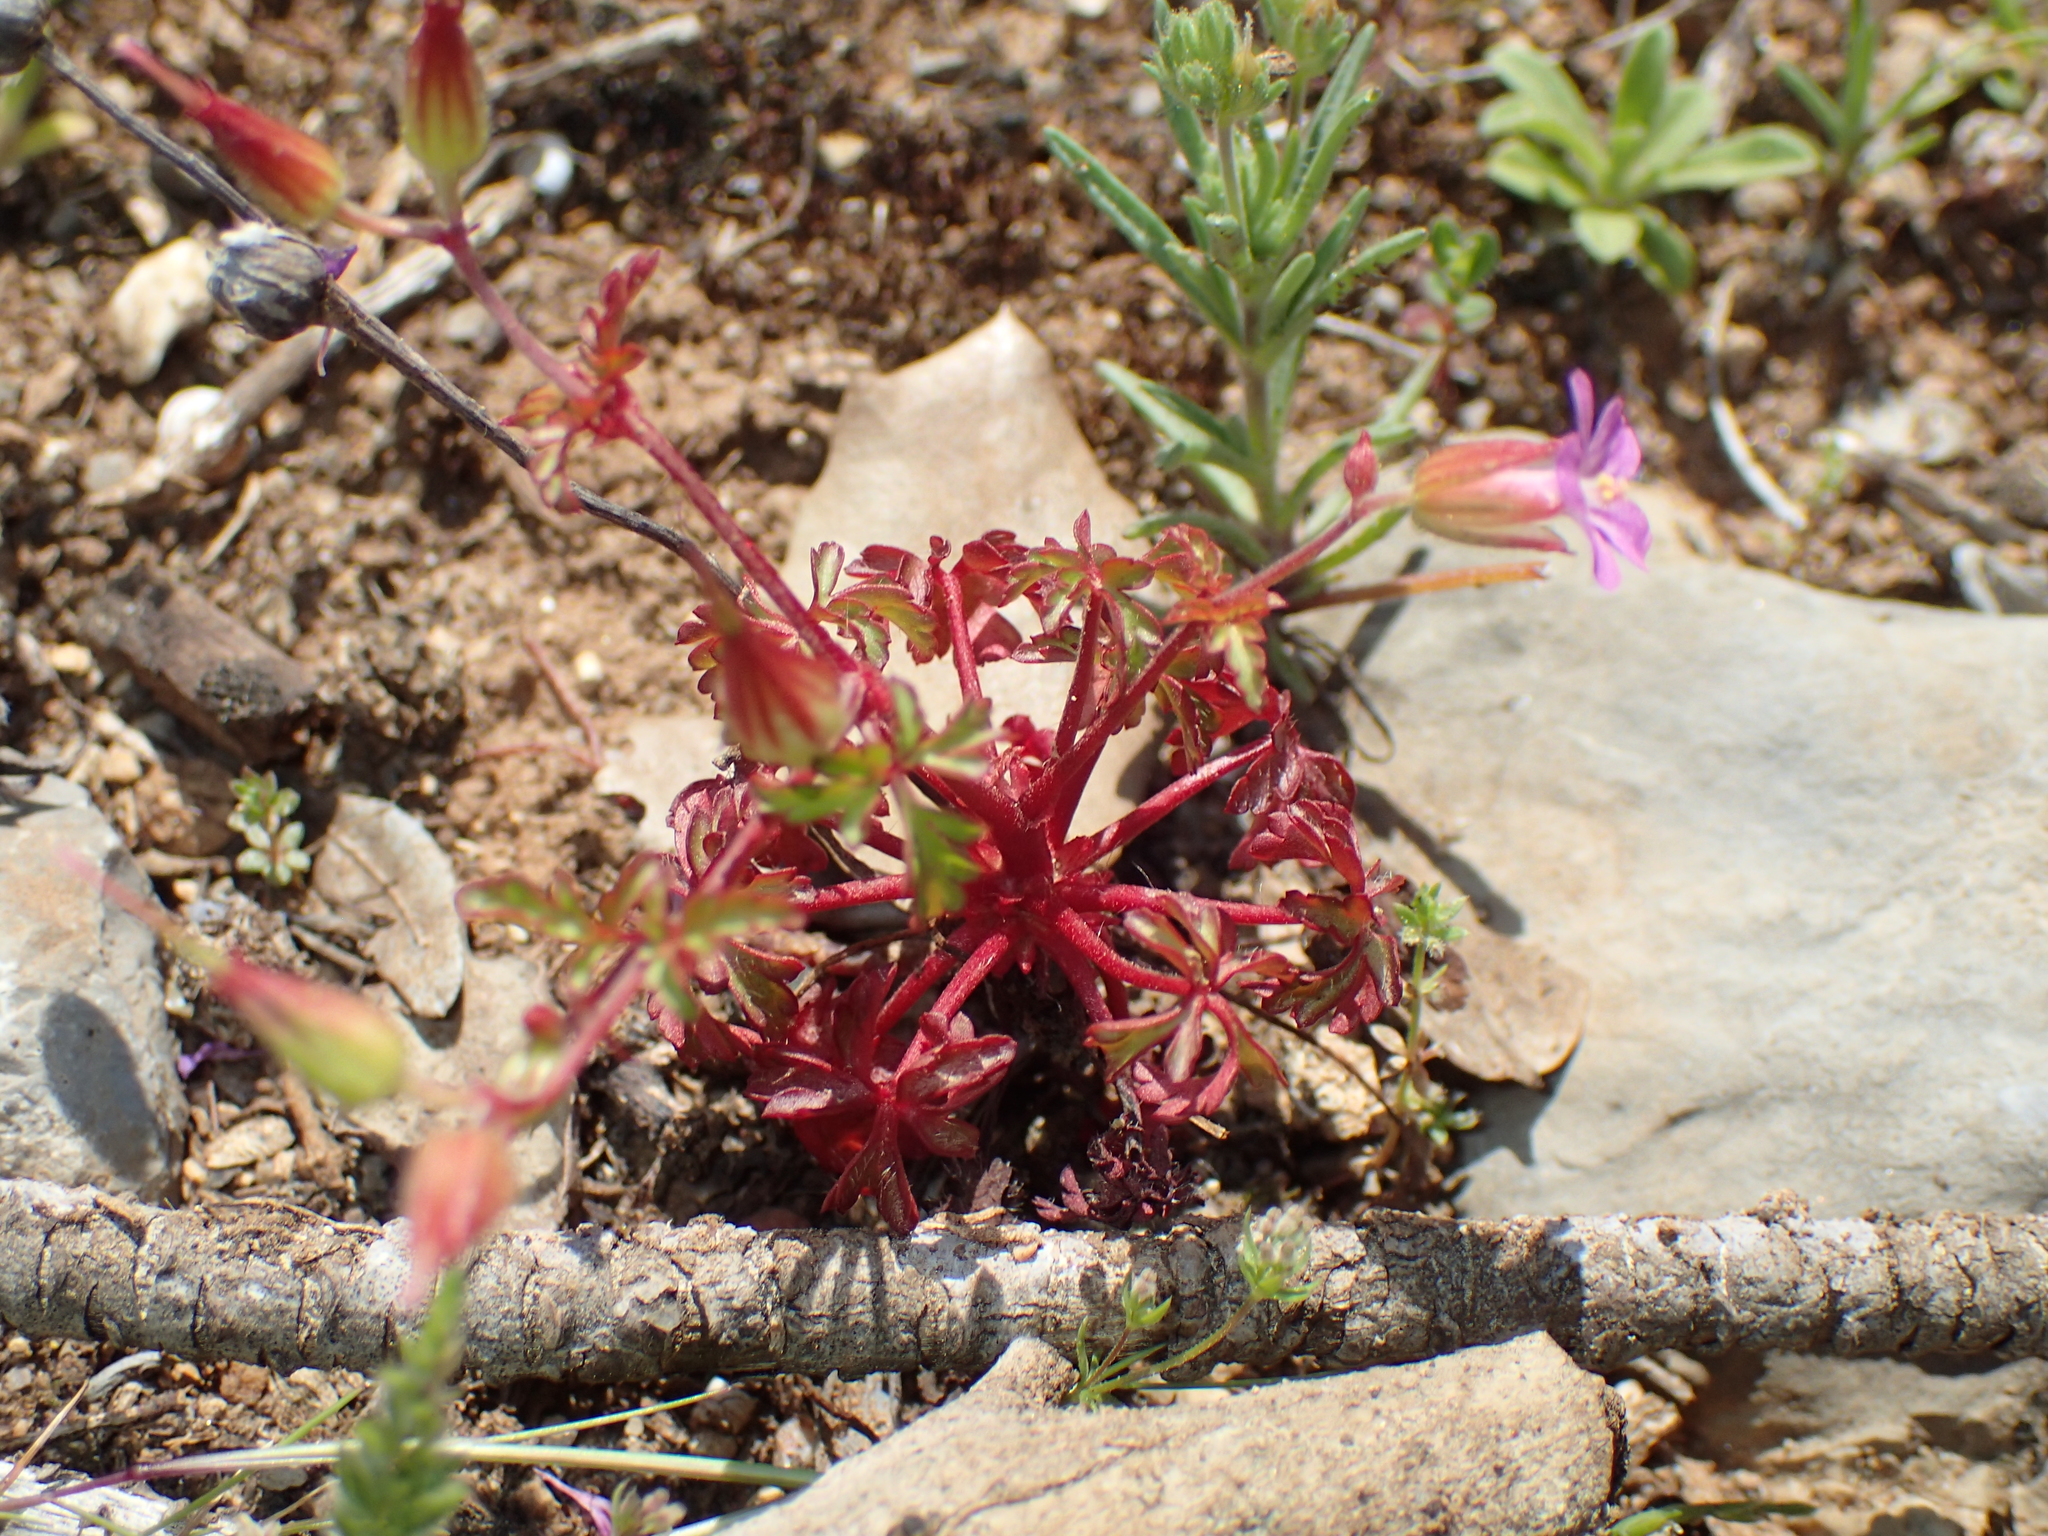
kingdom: Plantae
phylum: Tracheophyta
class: Magnoliopsida
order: Geraniales
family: Geraniaceae
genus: Geranium
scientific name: Geranium purpureum
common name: Little-robin
